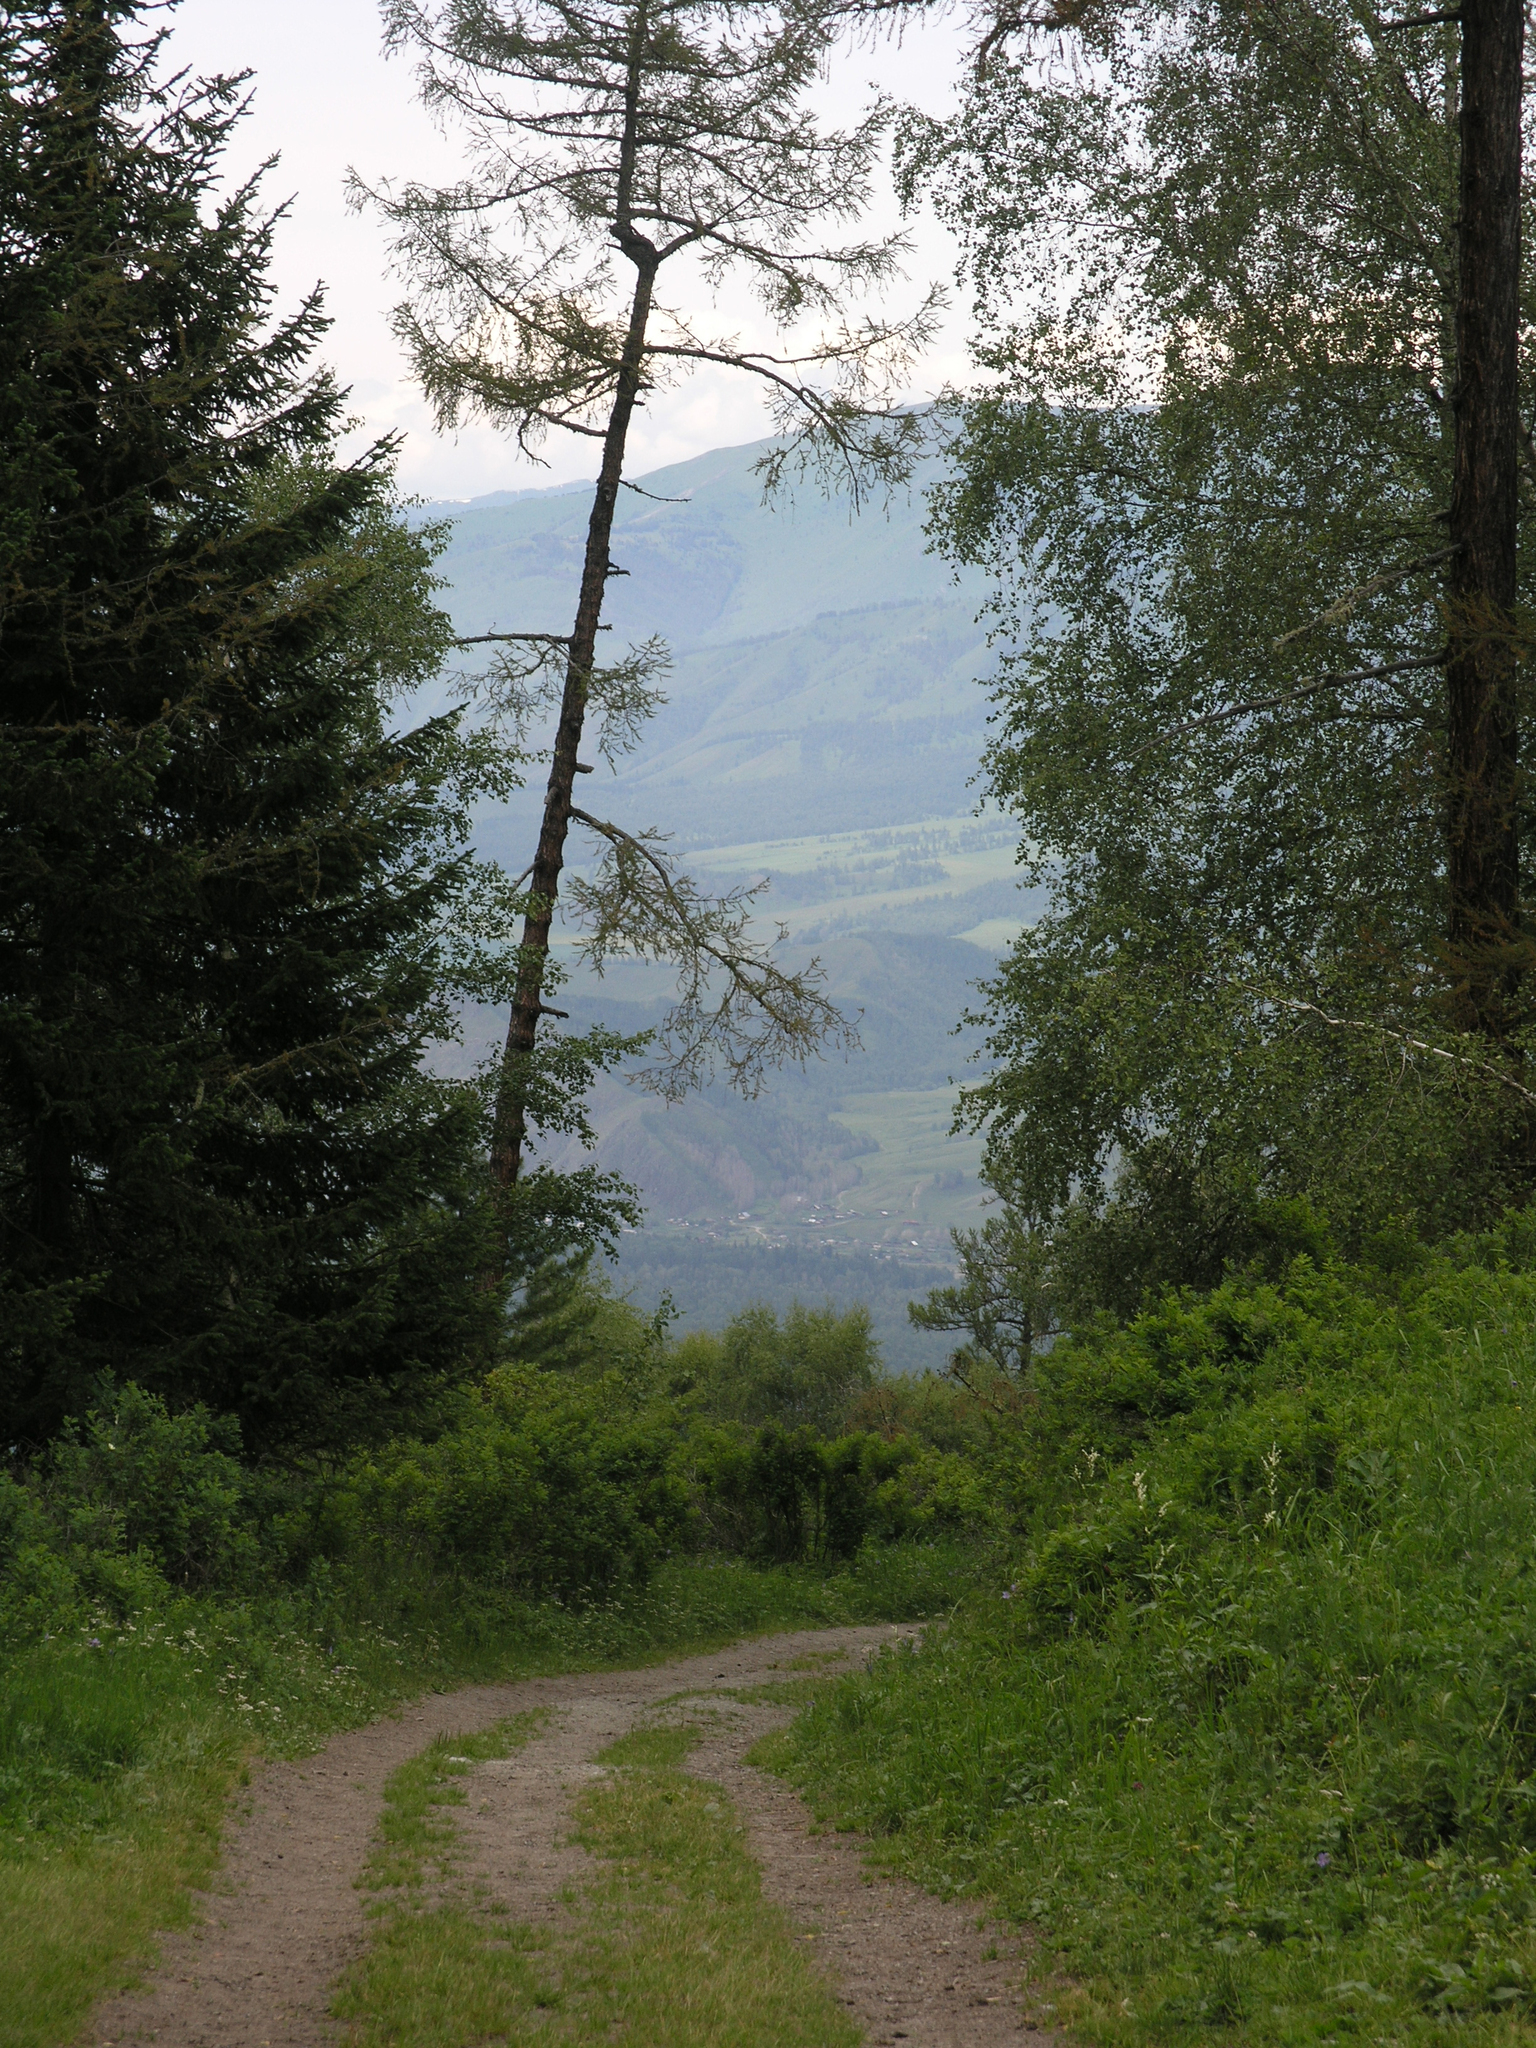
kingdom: Plantae
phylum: Tracheophyta
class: Pinopsida
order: Pinales
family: Pinaceae
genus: Larix
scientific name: Larix sibirica
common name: Siberian larch
